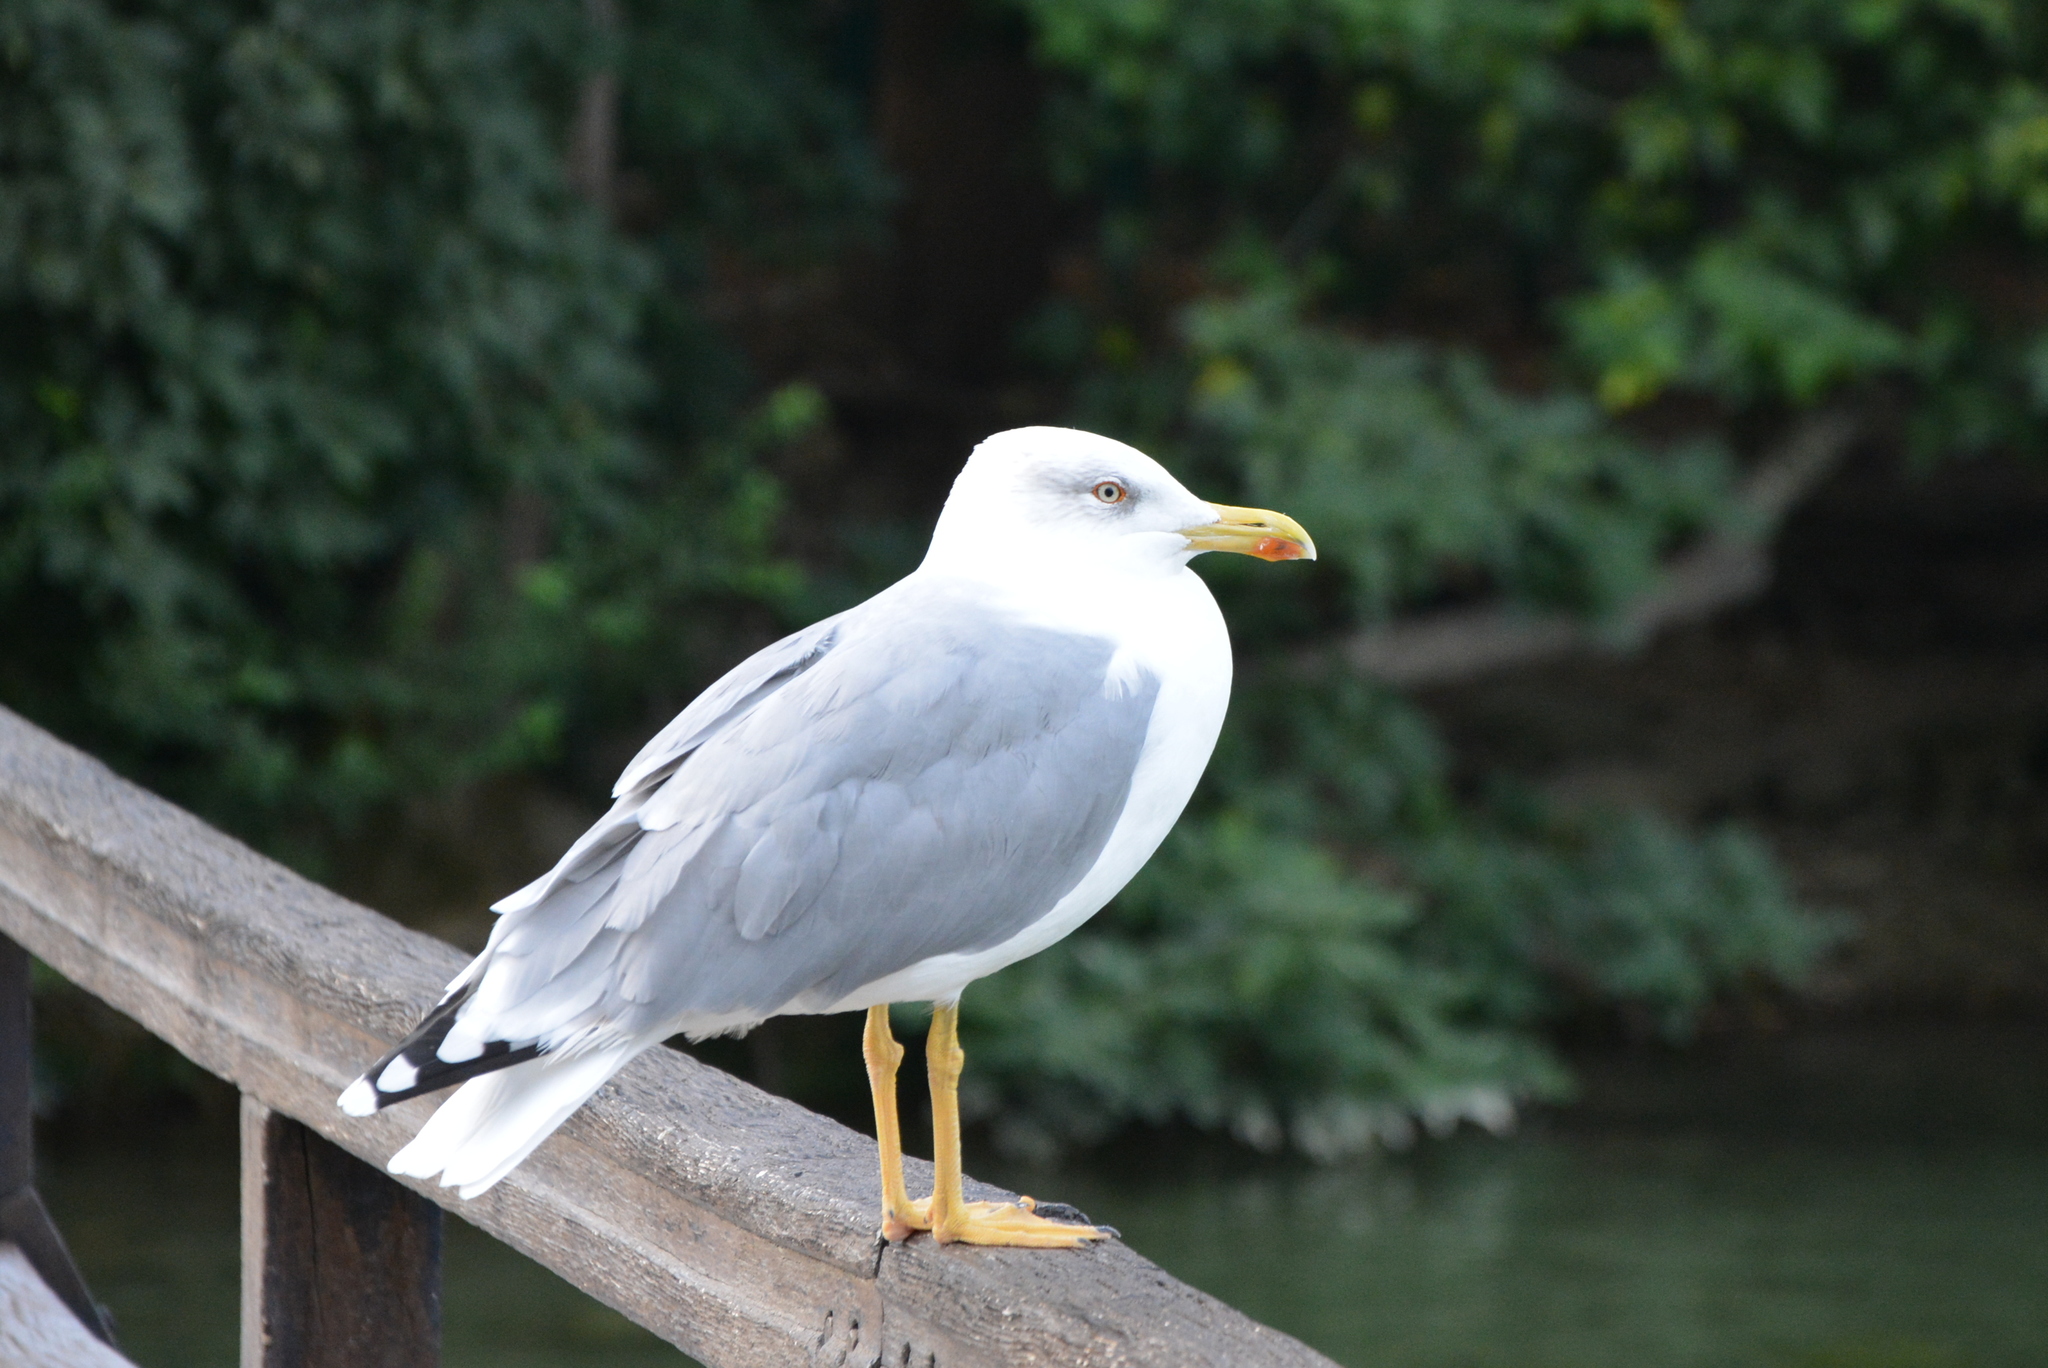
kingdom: Animalia
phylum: Chordata
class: Aves
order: Charadriiformes
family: Laridae
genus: Larus
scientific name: Larus michahellis
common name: Yellow-legged gull
